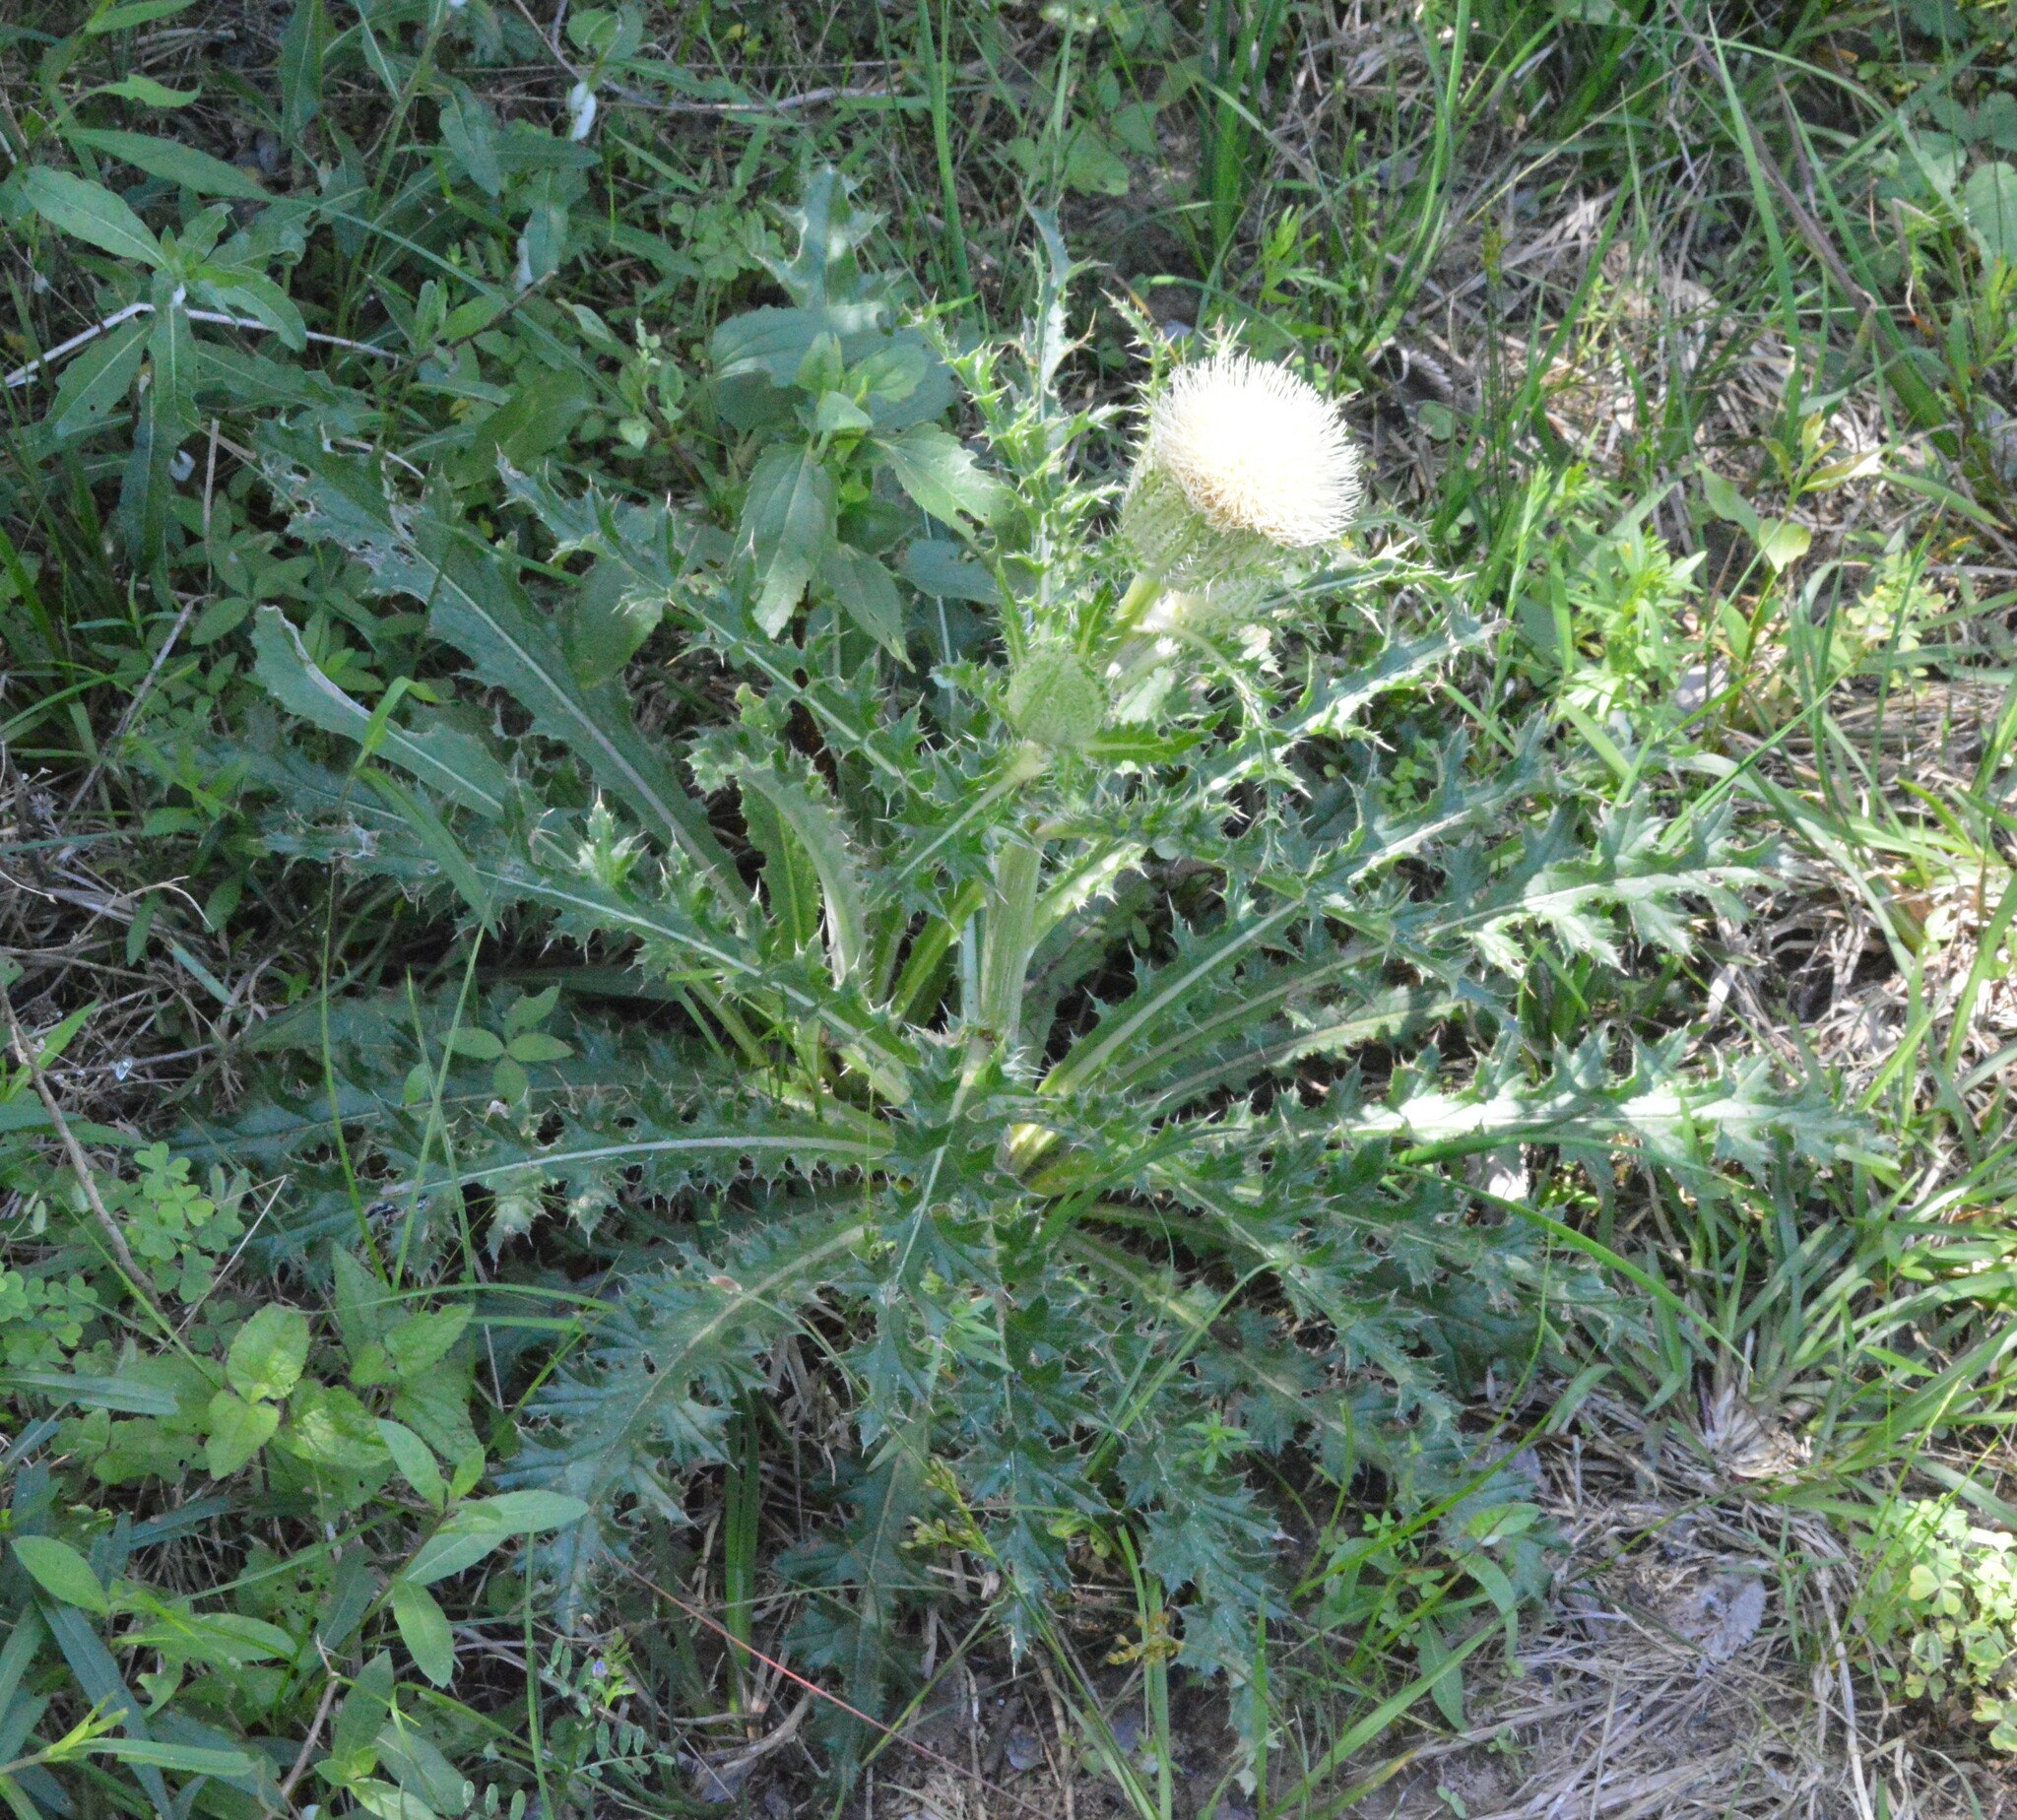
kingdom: Plantae
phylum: Tracheophyta
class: Magnoliopsida
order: Asterales
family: Asteraceae
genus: Cirsium
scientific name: Cirsium horridulum
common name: Bristly thistle
